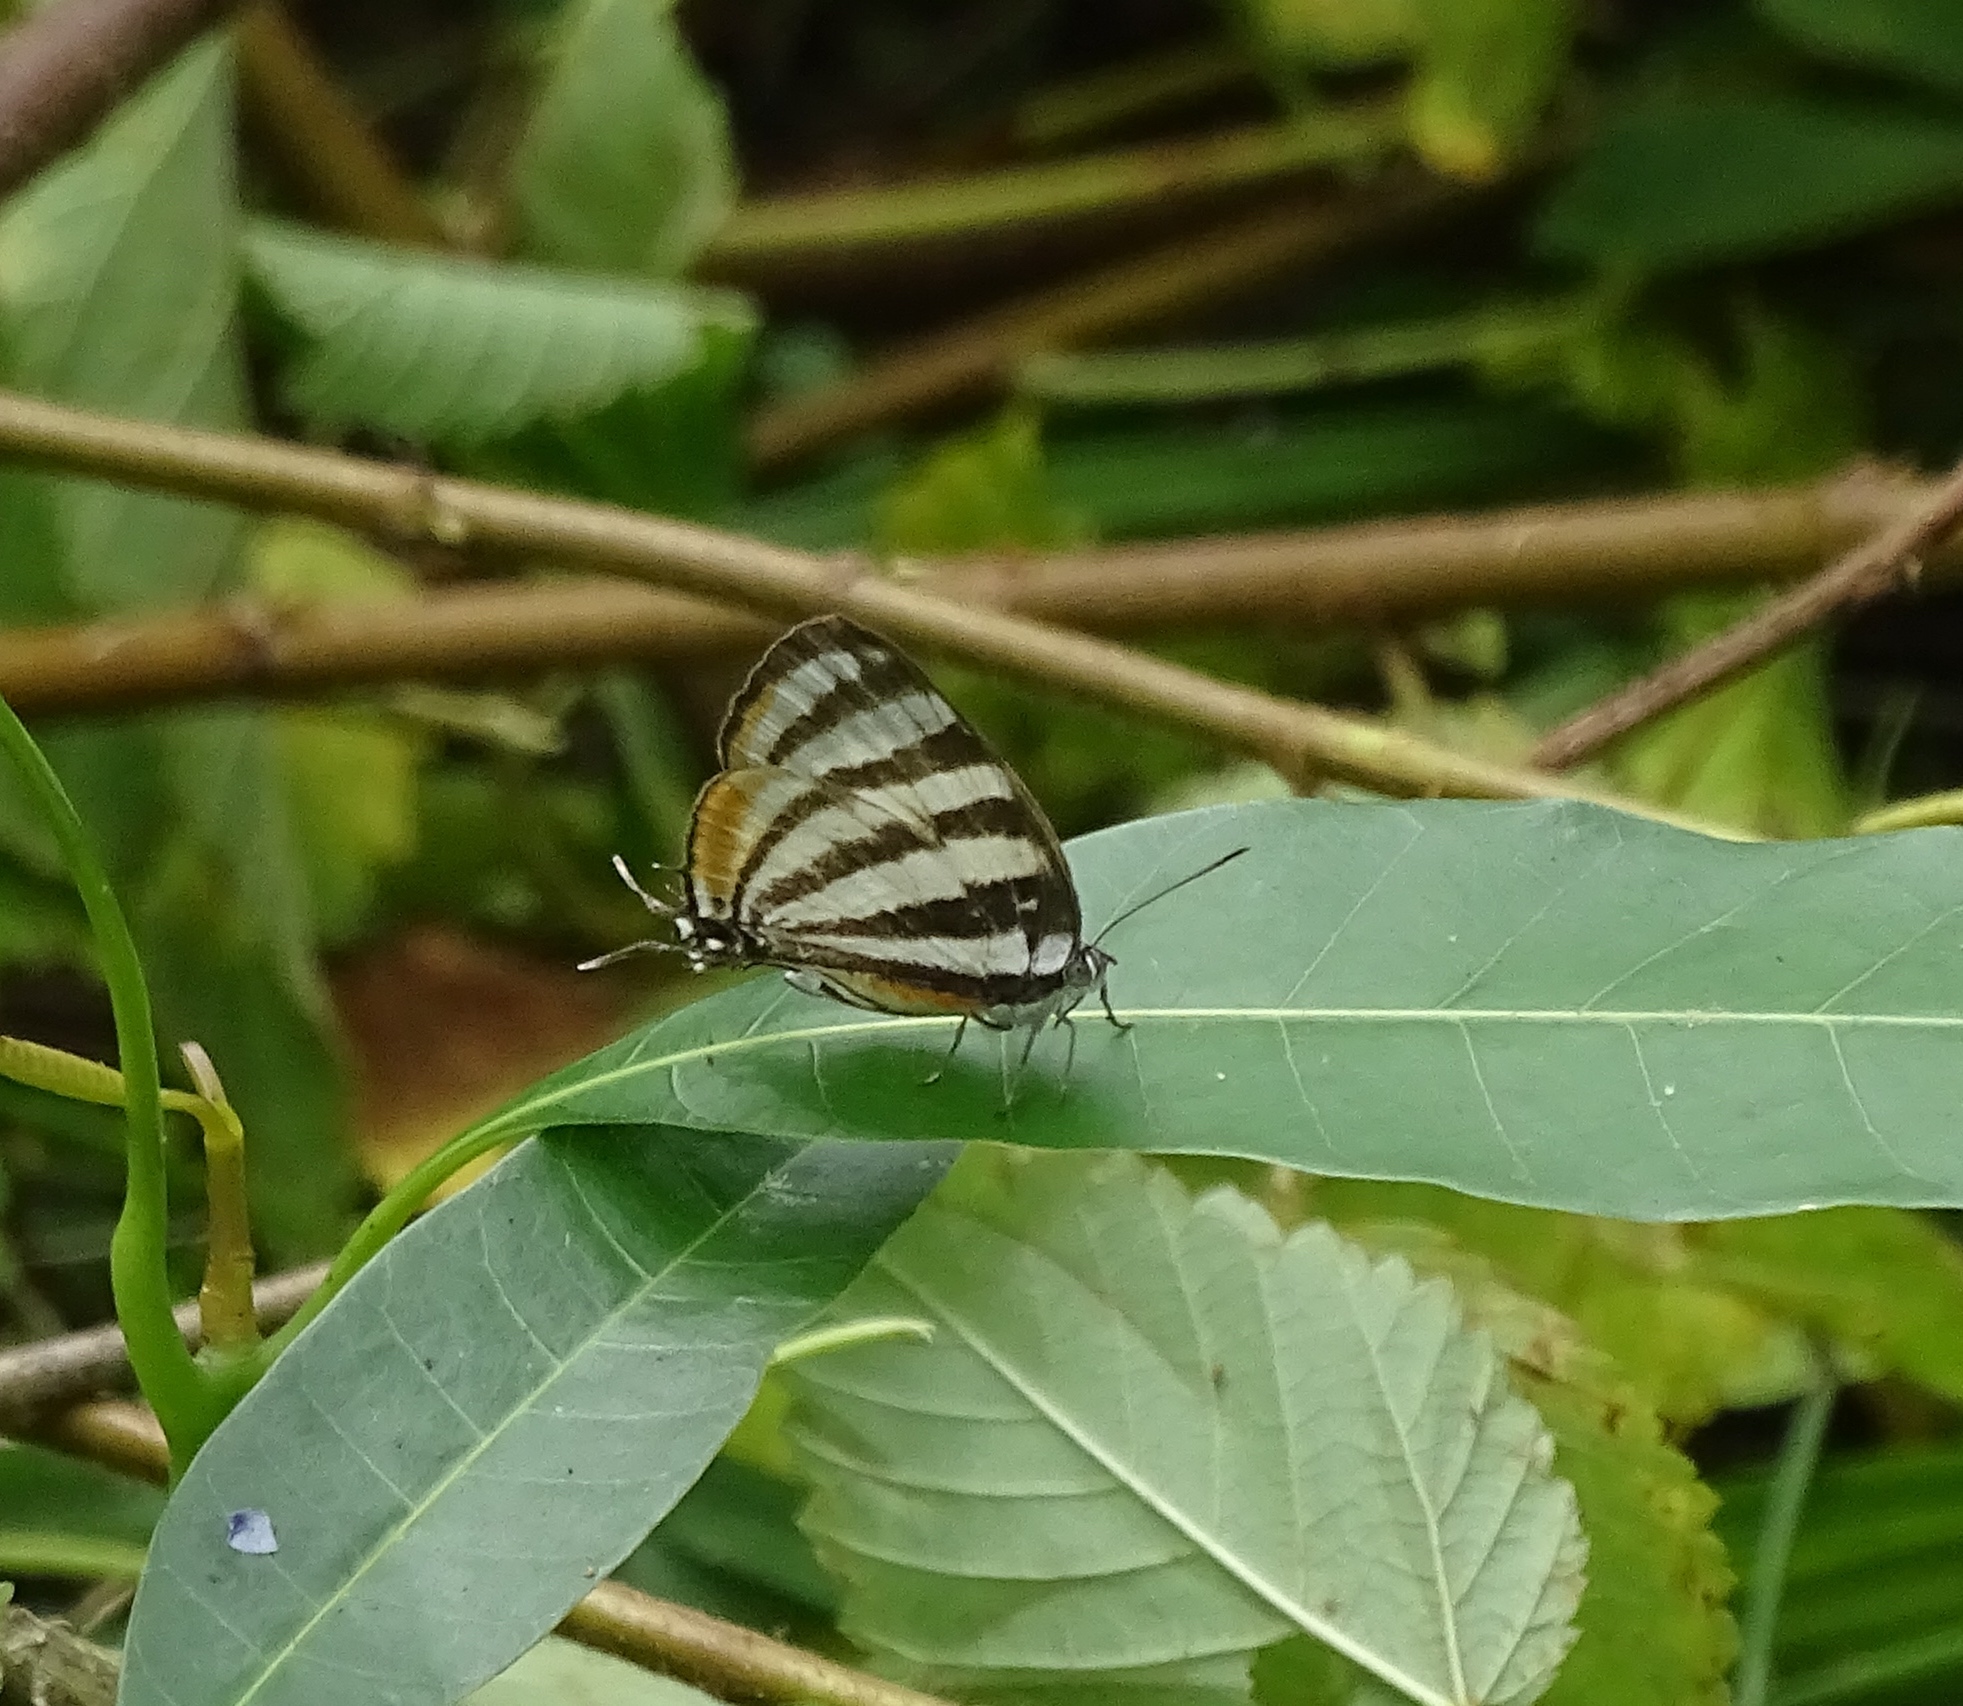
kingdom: Animalia
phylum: Arthropoda
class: Insecta
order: Lepidoptera
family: Lycaenidae
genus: Arawacus
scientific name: Arawacus lincoides
